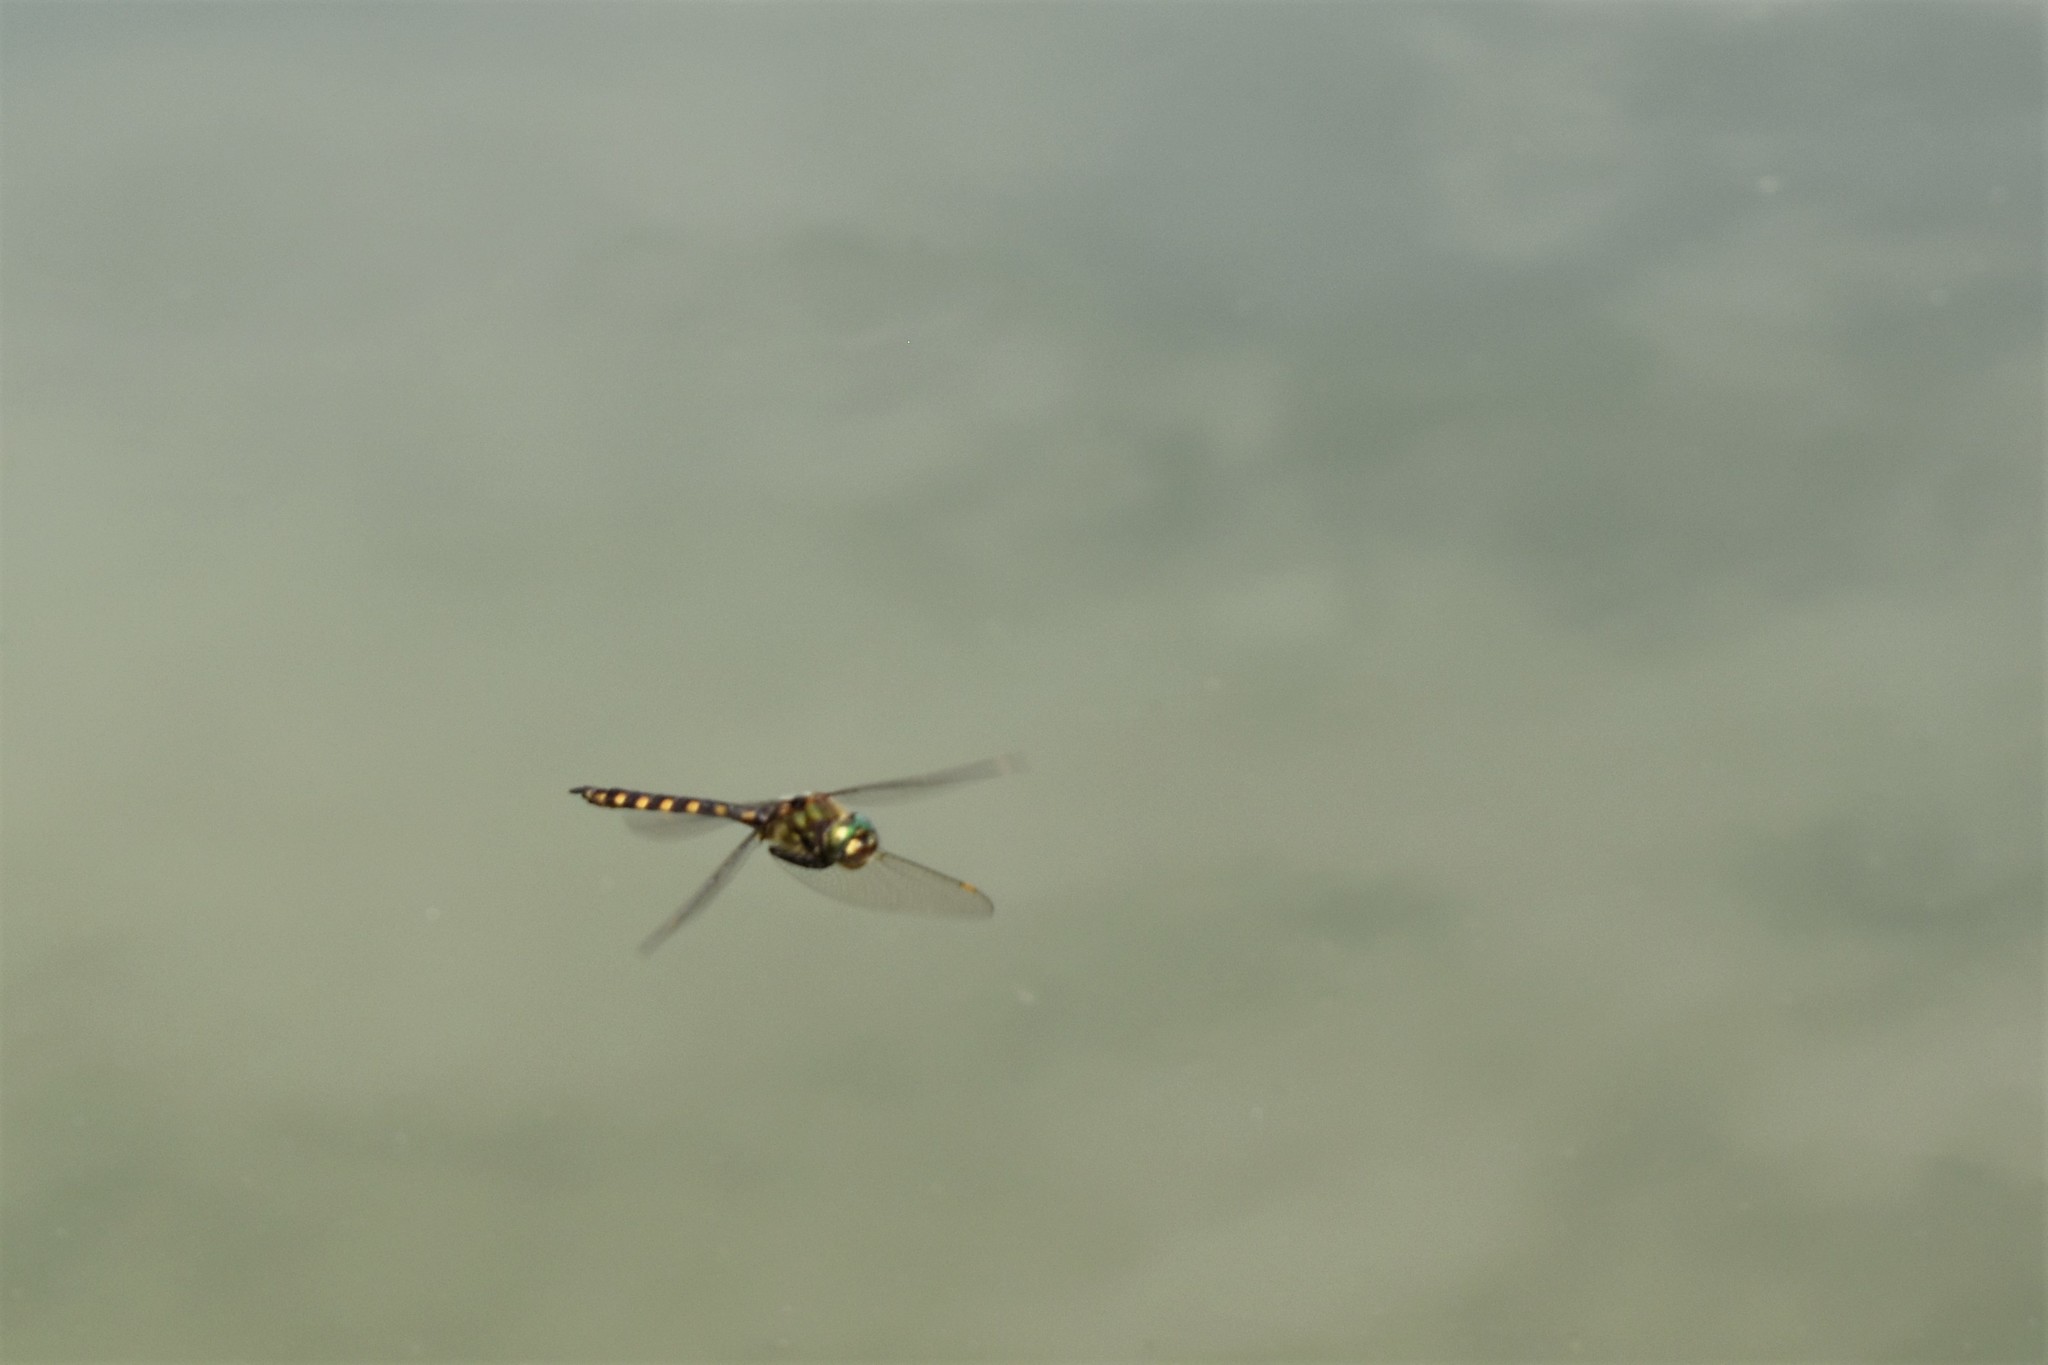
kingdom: Animalia
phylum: Arthropoda
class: Insecta
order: Odonata
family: Corduliidae
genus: Procordulia
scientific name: Procordulia grayi
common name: Yellow spotted dragonfly
